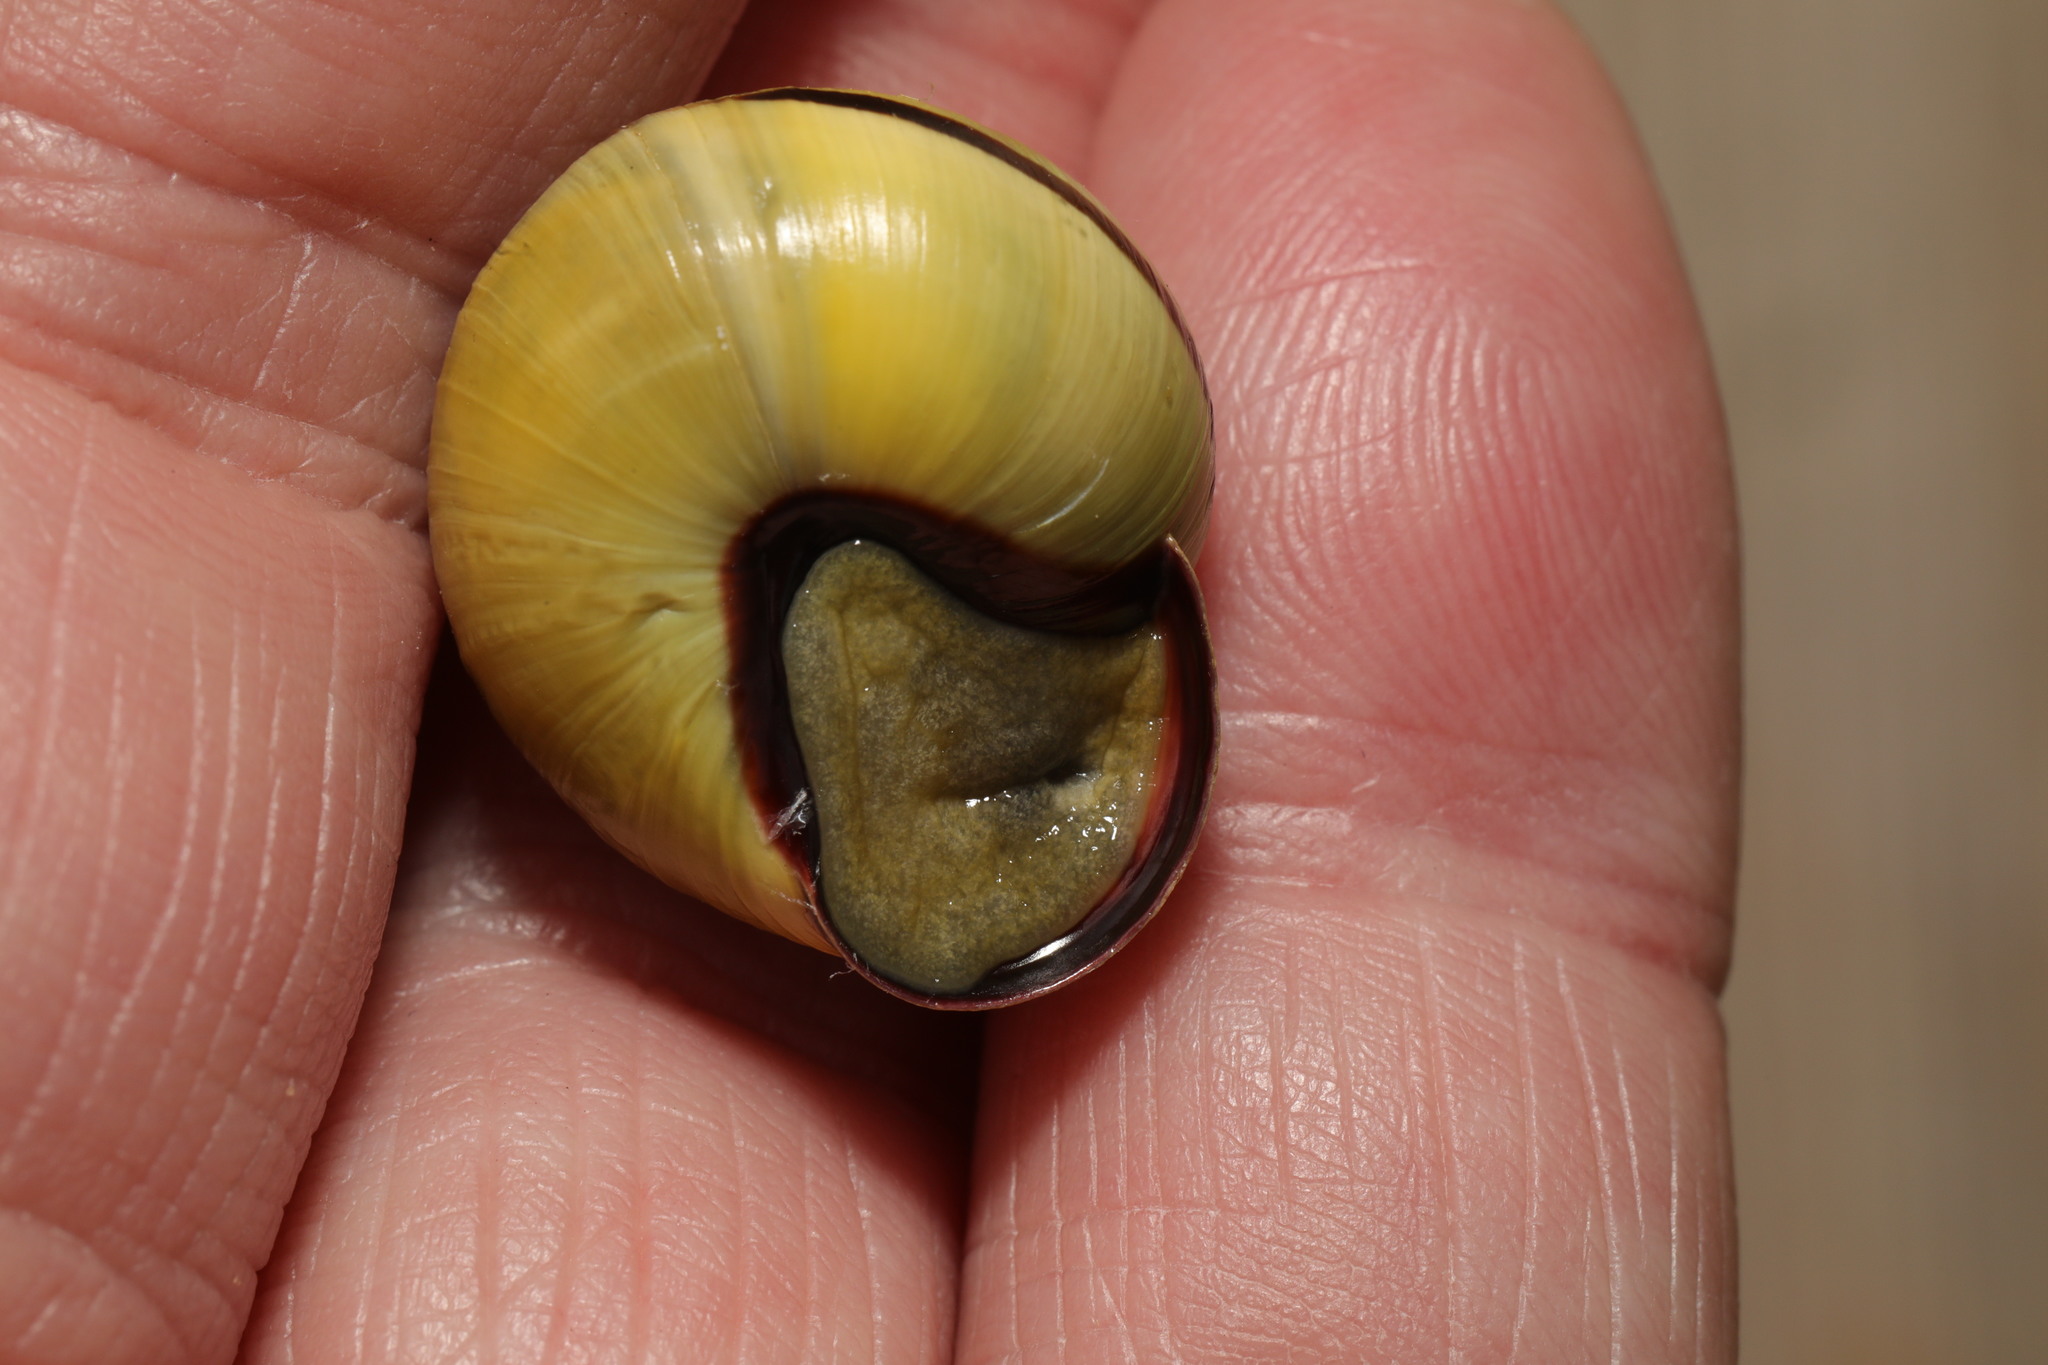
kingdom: Animalia
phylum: Mollusca
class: Gastropoda
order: Stylommatophora
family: Helicidae
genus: Cepaea
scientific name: Cepaea nemoralis
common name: Grovesnail
